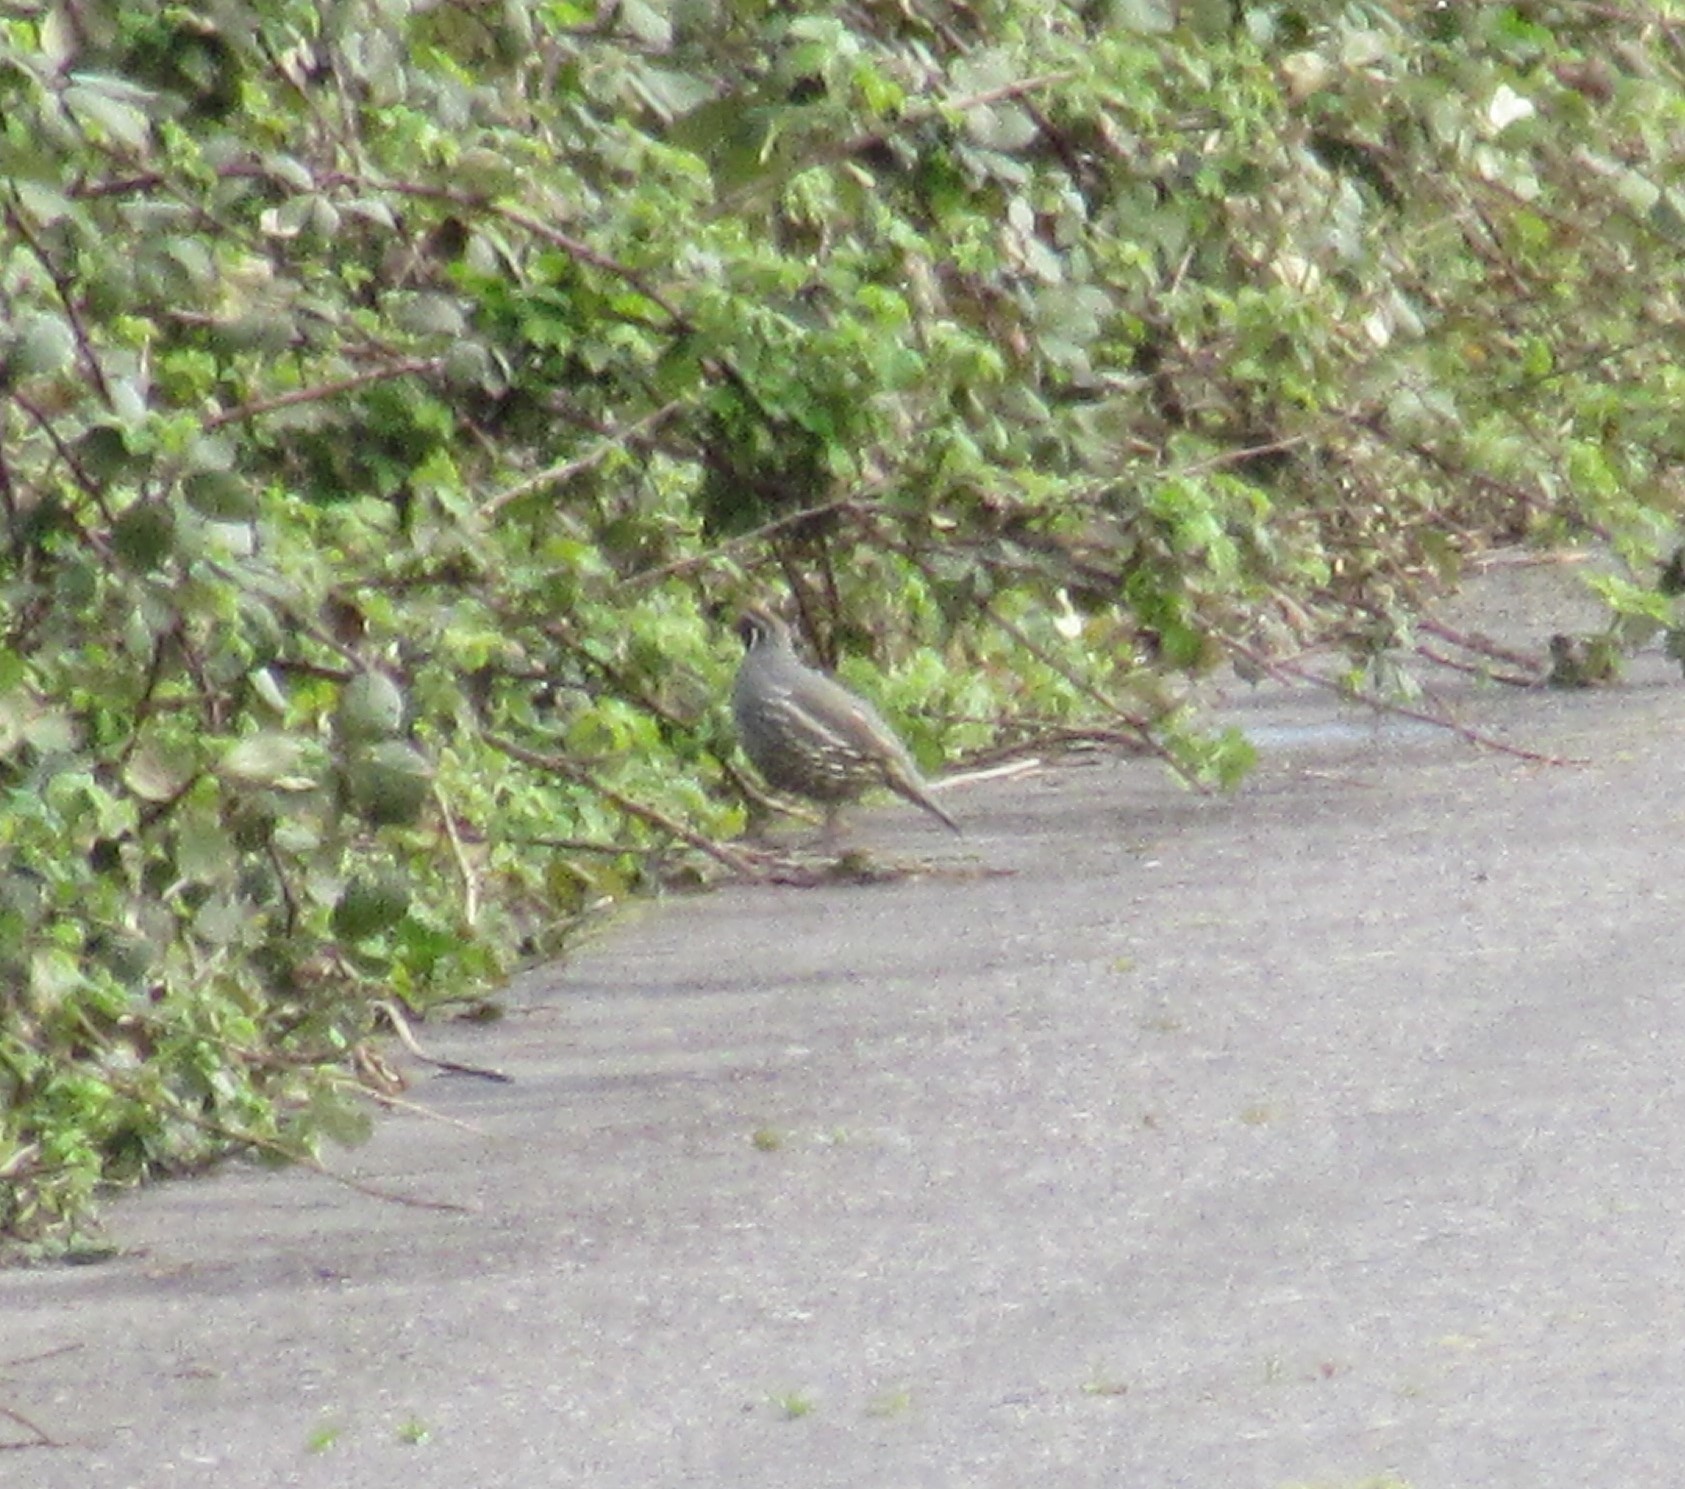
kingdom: Animalia
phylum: Chordata
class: Aves
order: Galliformes
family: Odontophoridae
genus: Callipepla
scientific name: Callipepla californica
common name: California quail
